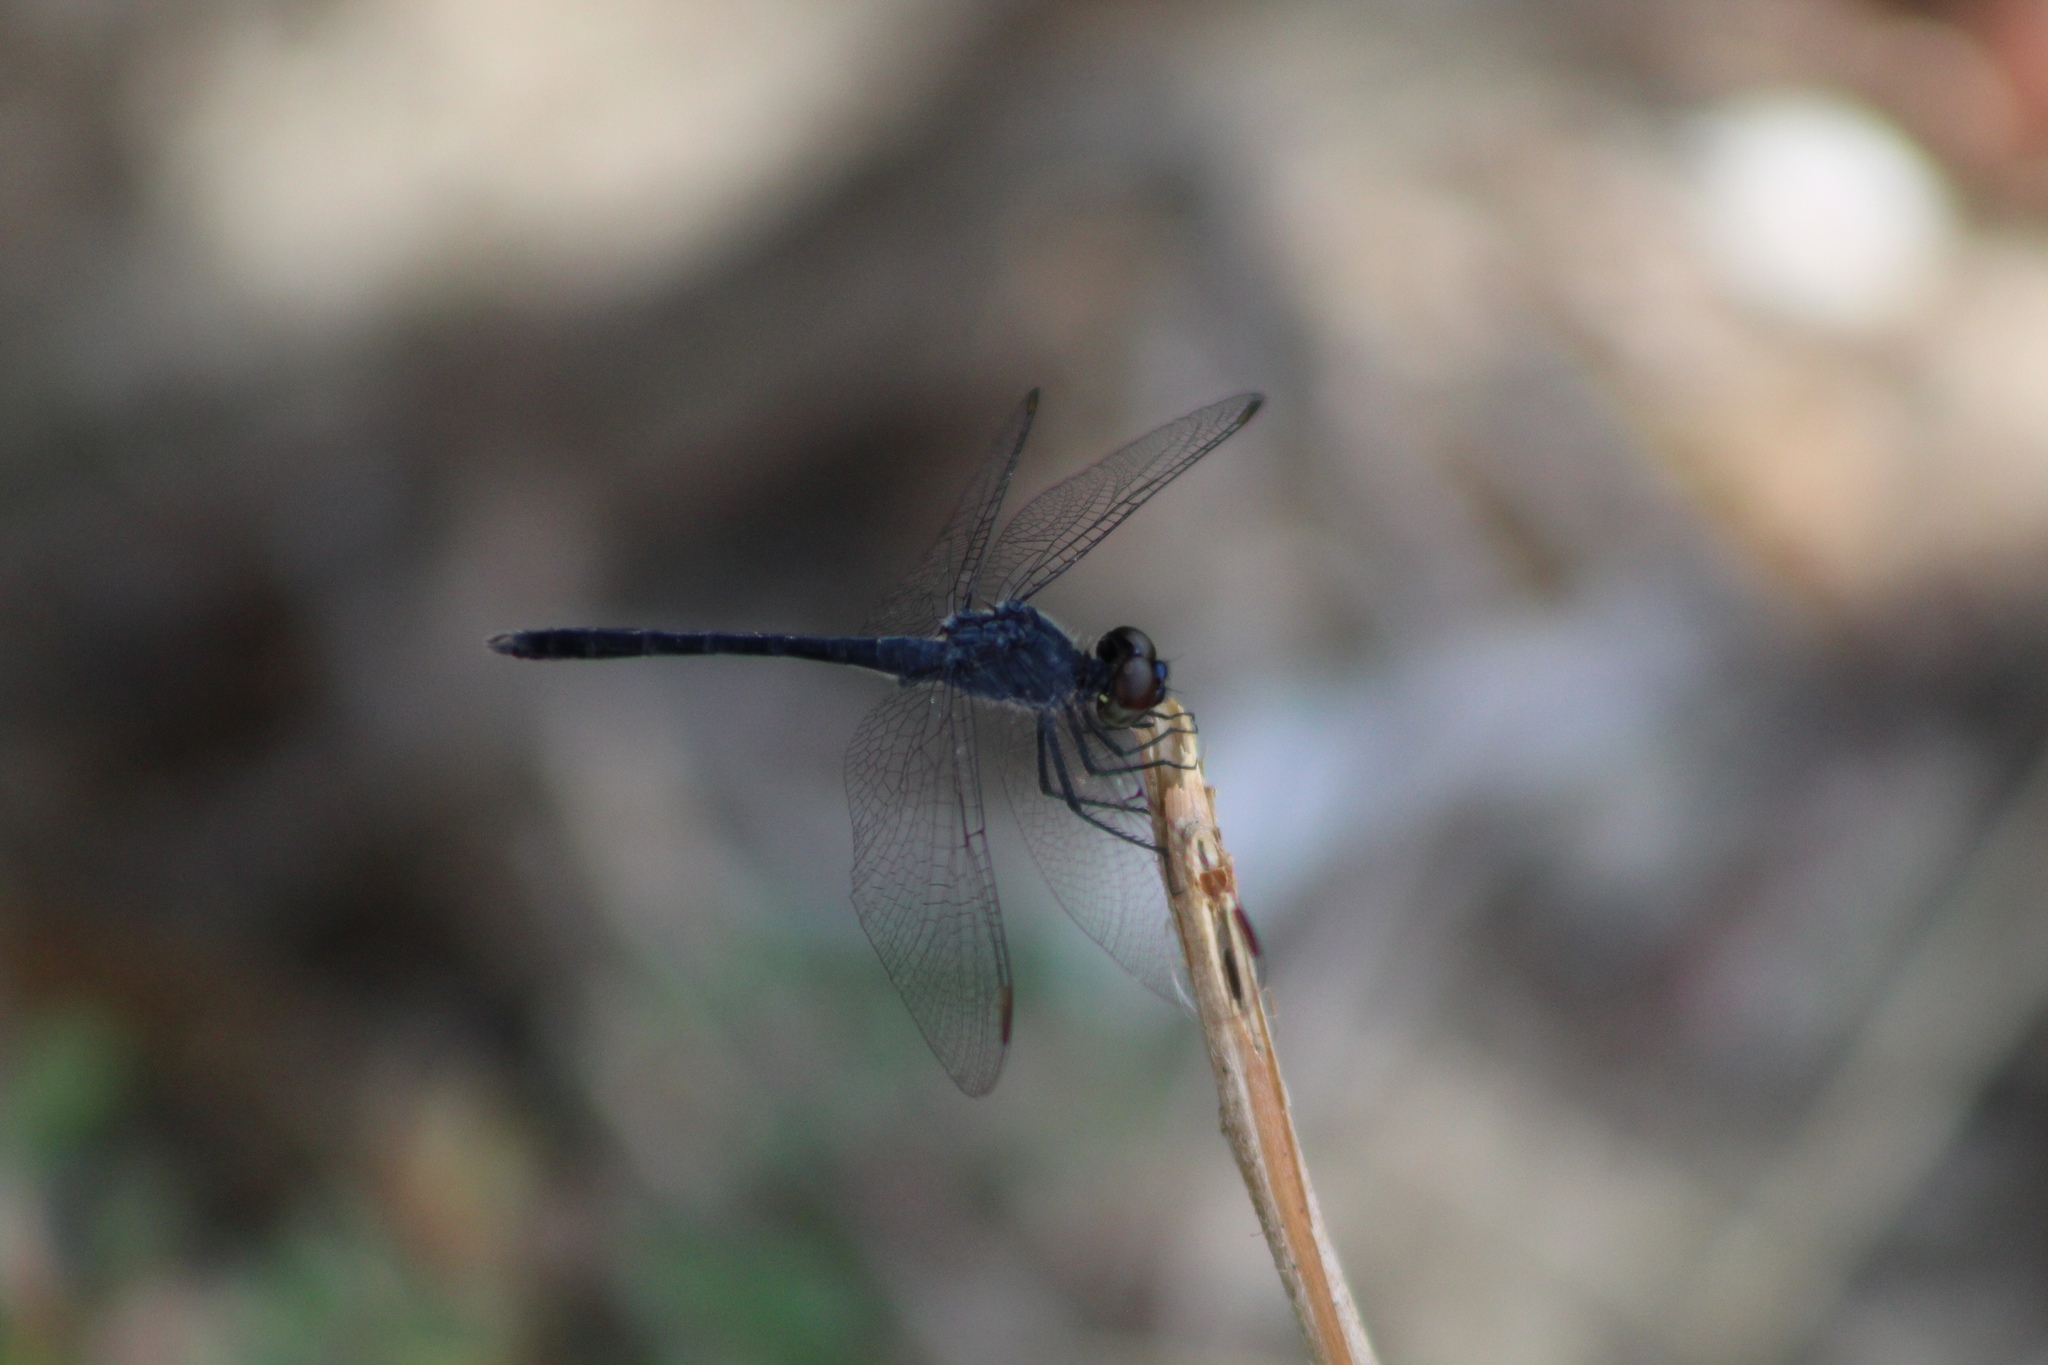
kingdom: Animalia
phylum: Arthropoda
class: Insecta
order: Odonata
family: Libellulidae
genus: Erythrodiplax
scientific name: Erythrodiplax berenice
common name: Seaside dragonlet
